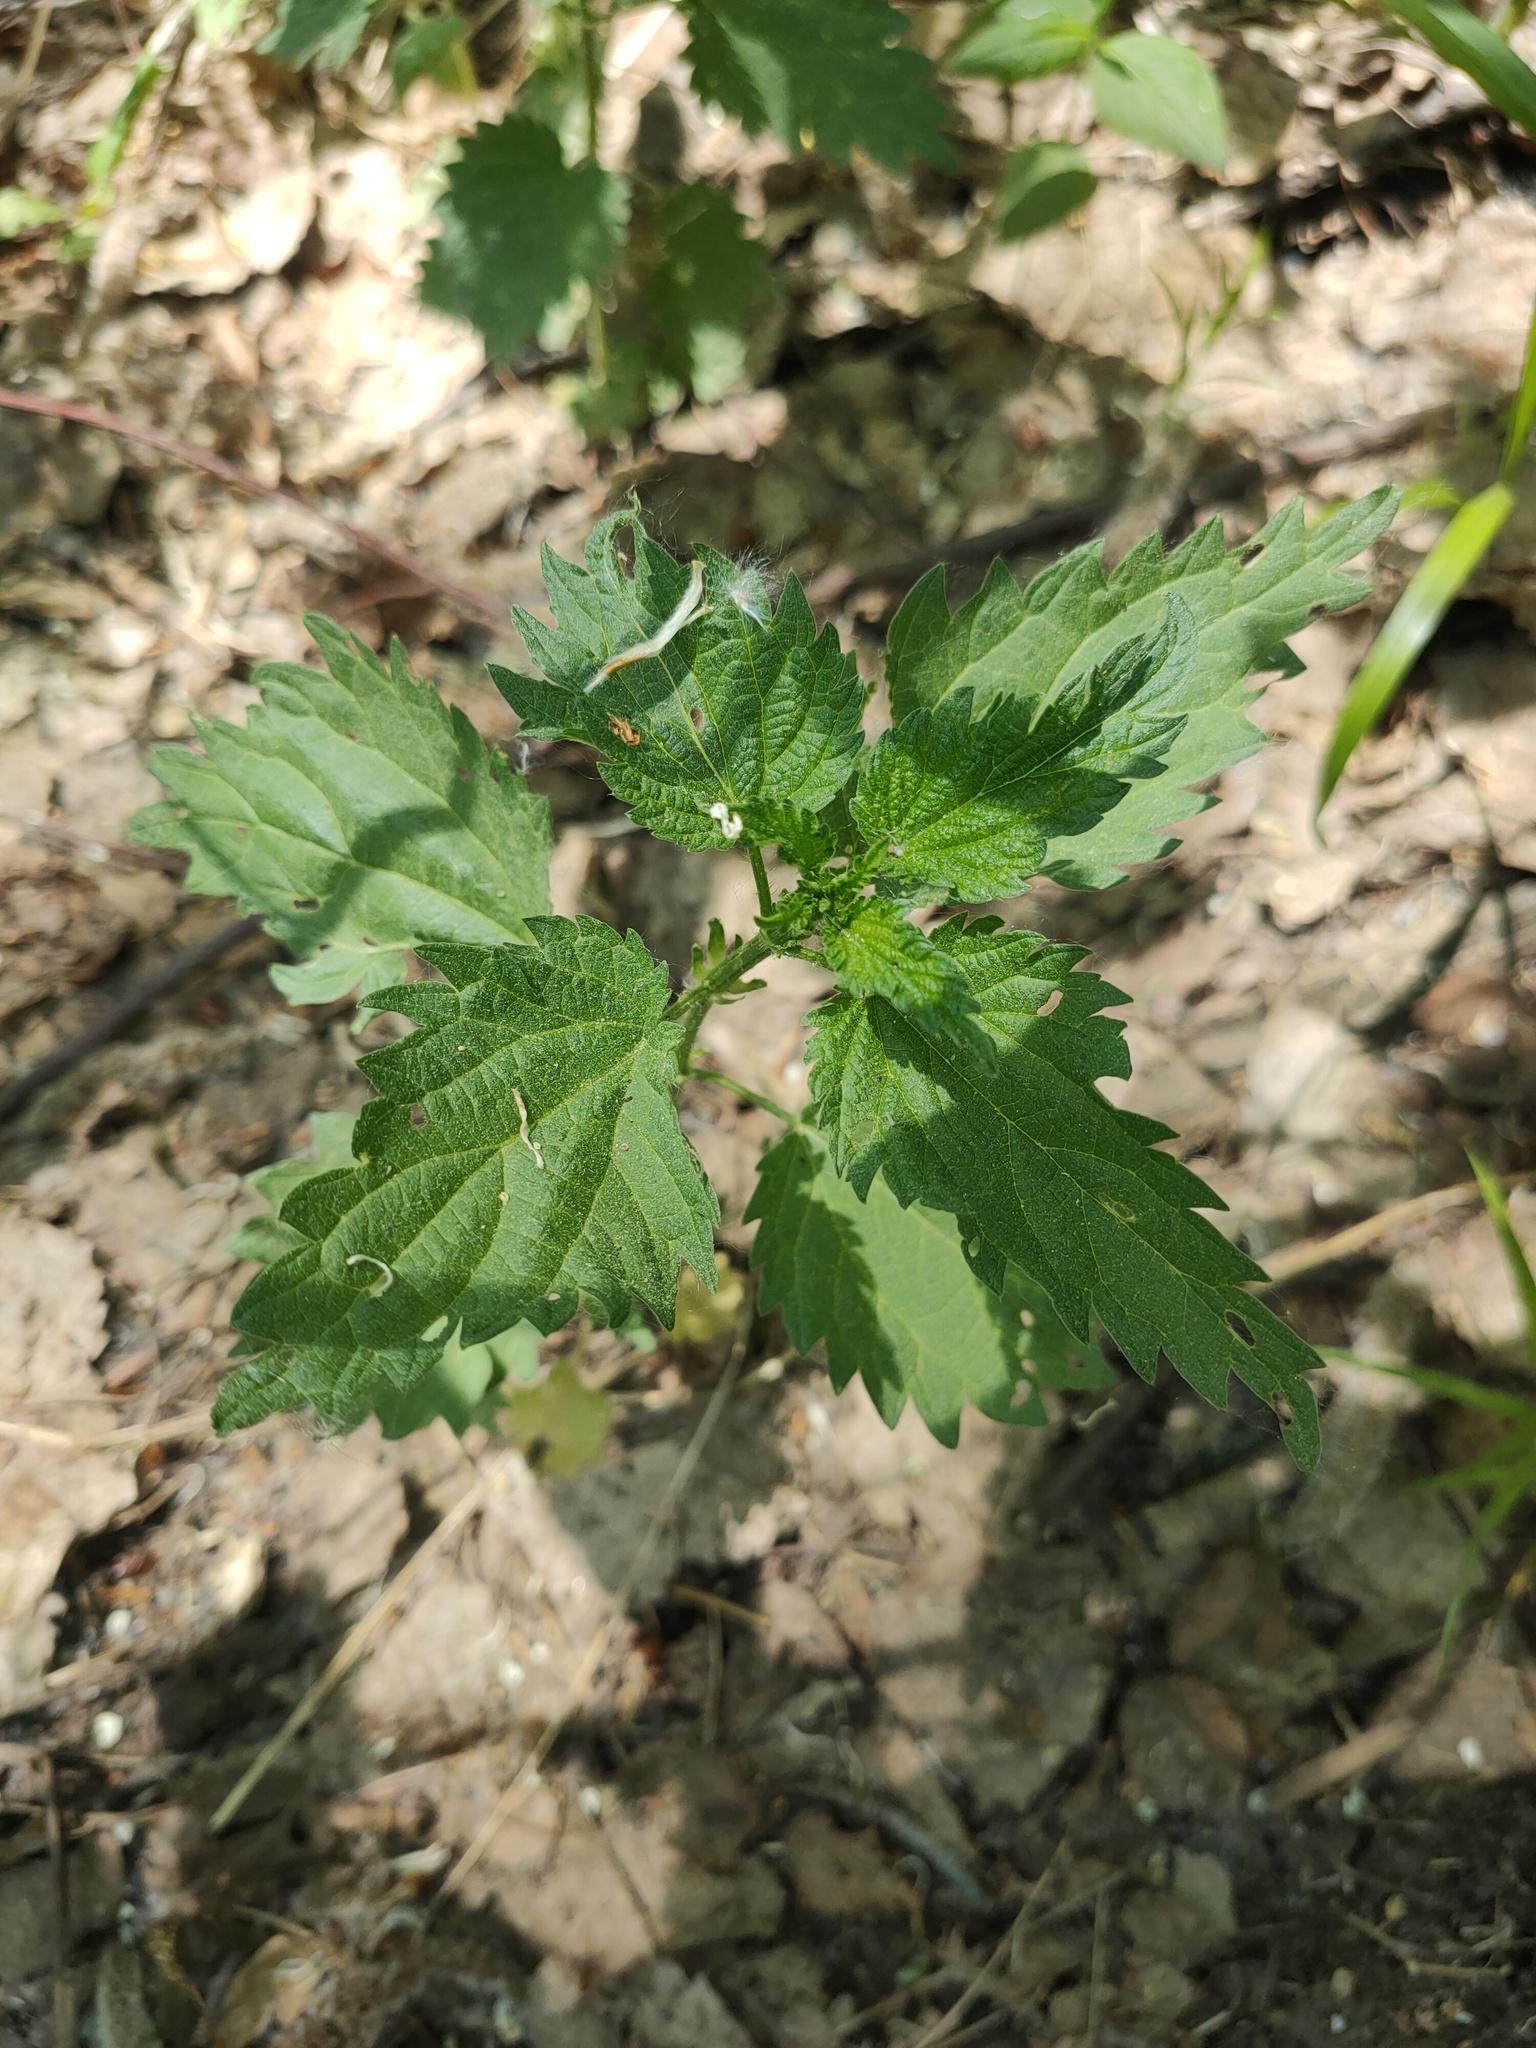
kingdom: Plantae
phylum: Tracheophyta
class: Magnoliopsida
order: Rosales
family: Urticaceae
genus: Urtica
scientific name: Urtica dioica
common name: Common nettle
